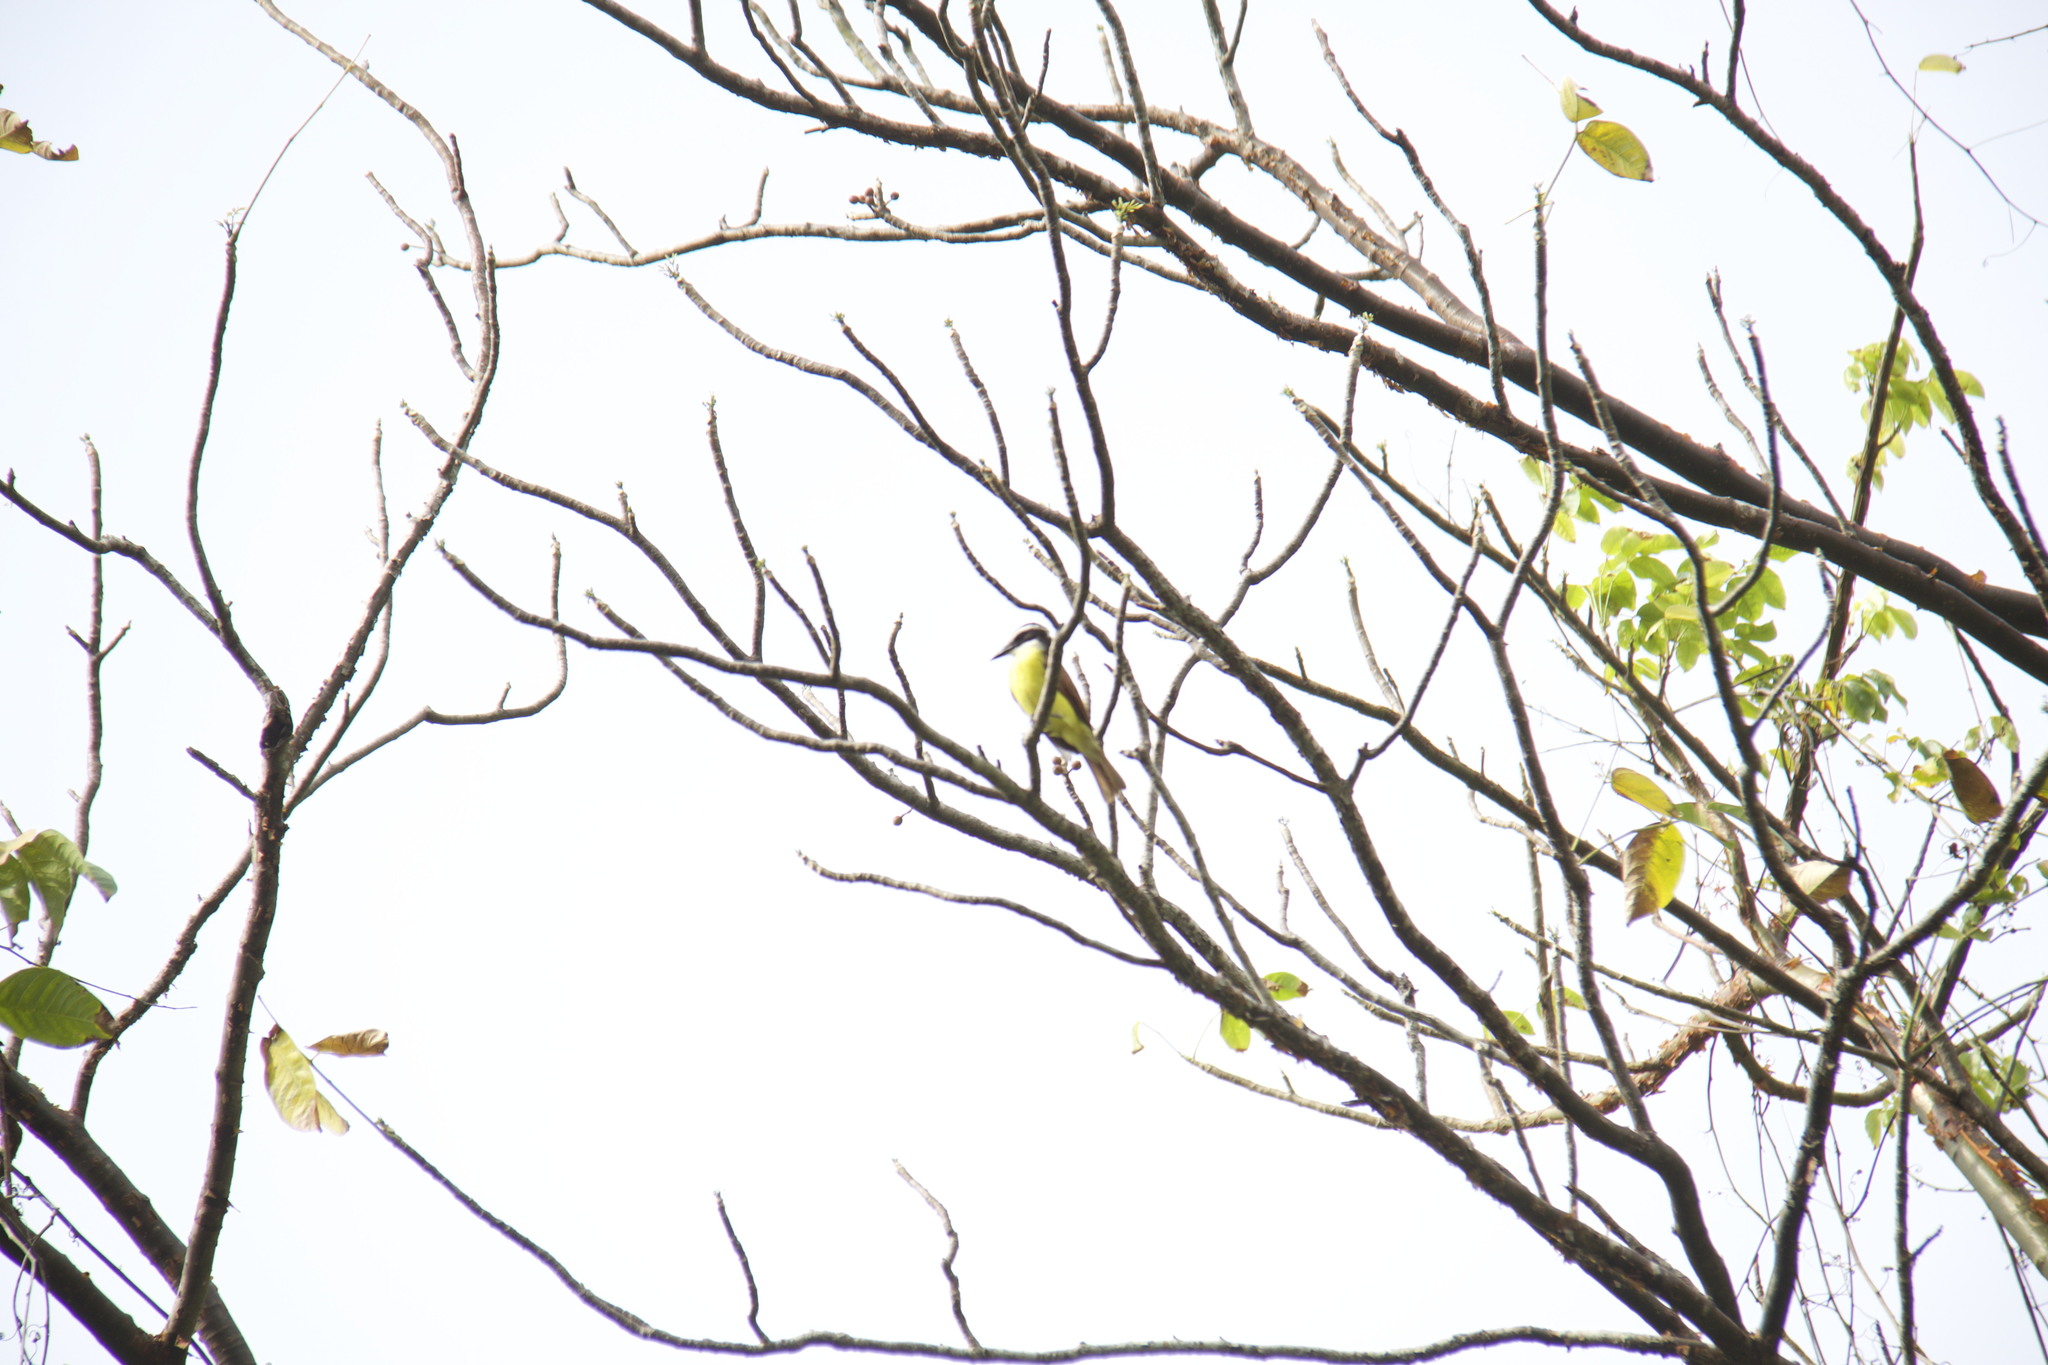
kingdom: Animalia
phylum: Chordata
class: Aves
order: Passeriformes
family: Tyrannidae
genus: Pitangus
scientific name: Pitangus sulphuratus
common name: Great kiskadee
